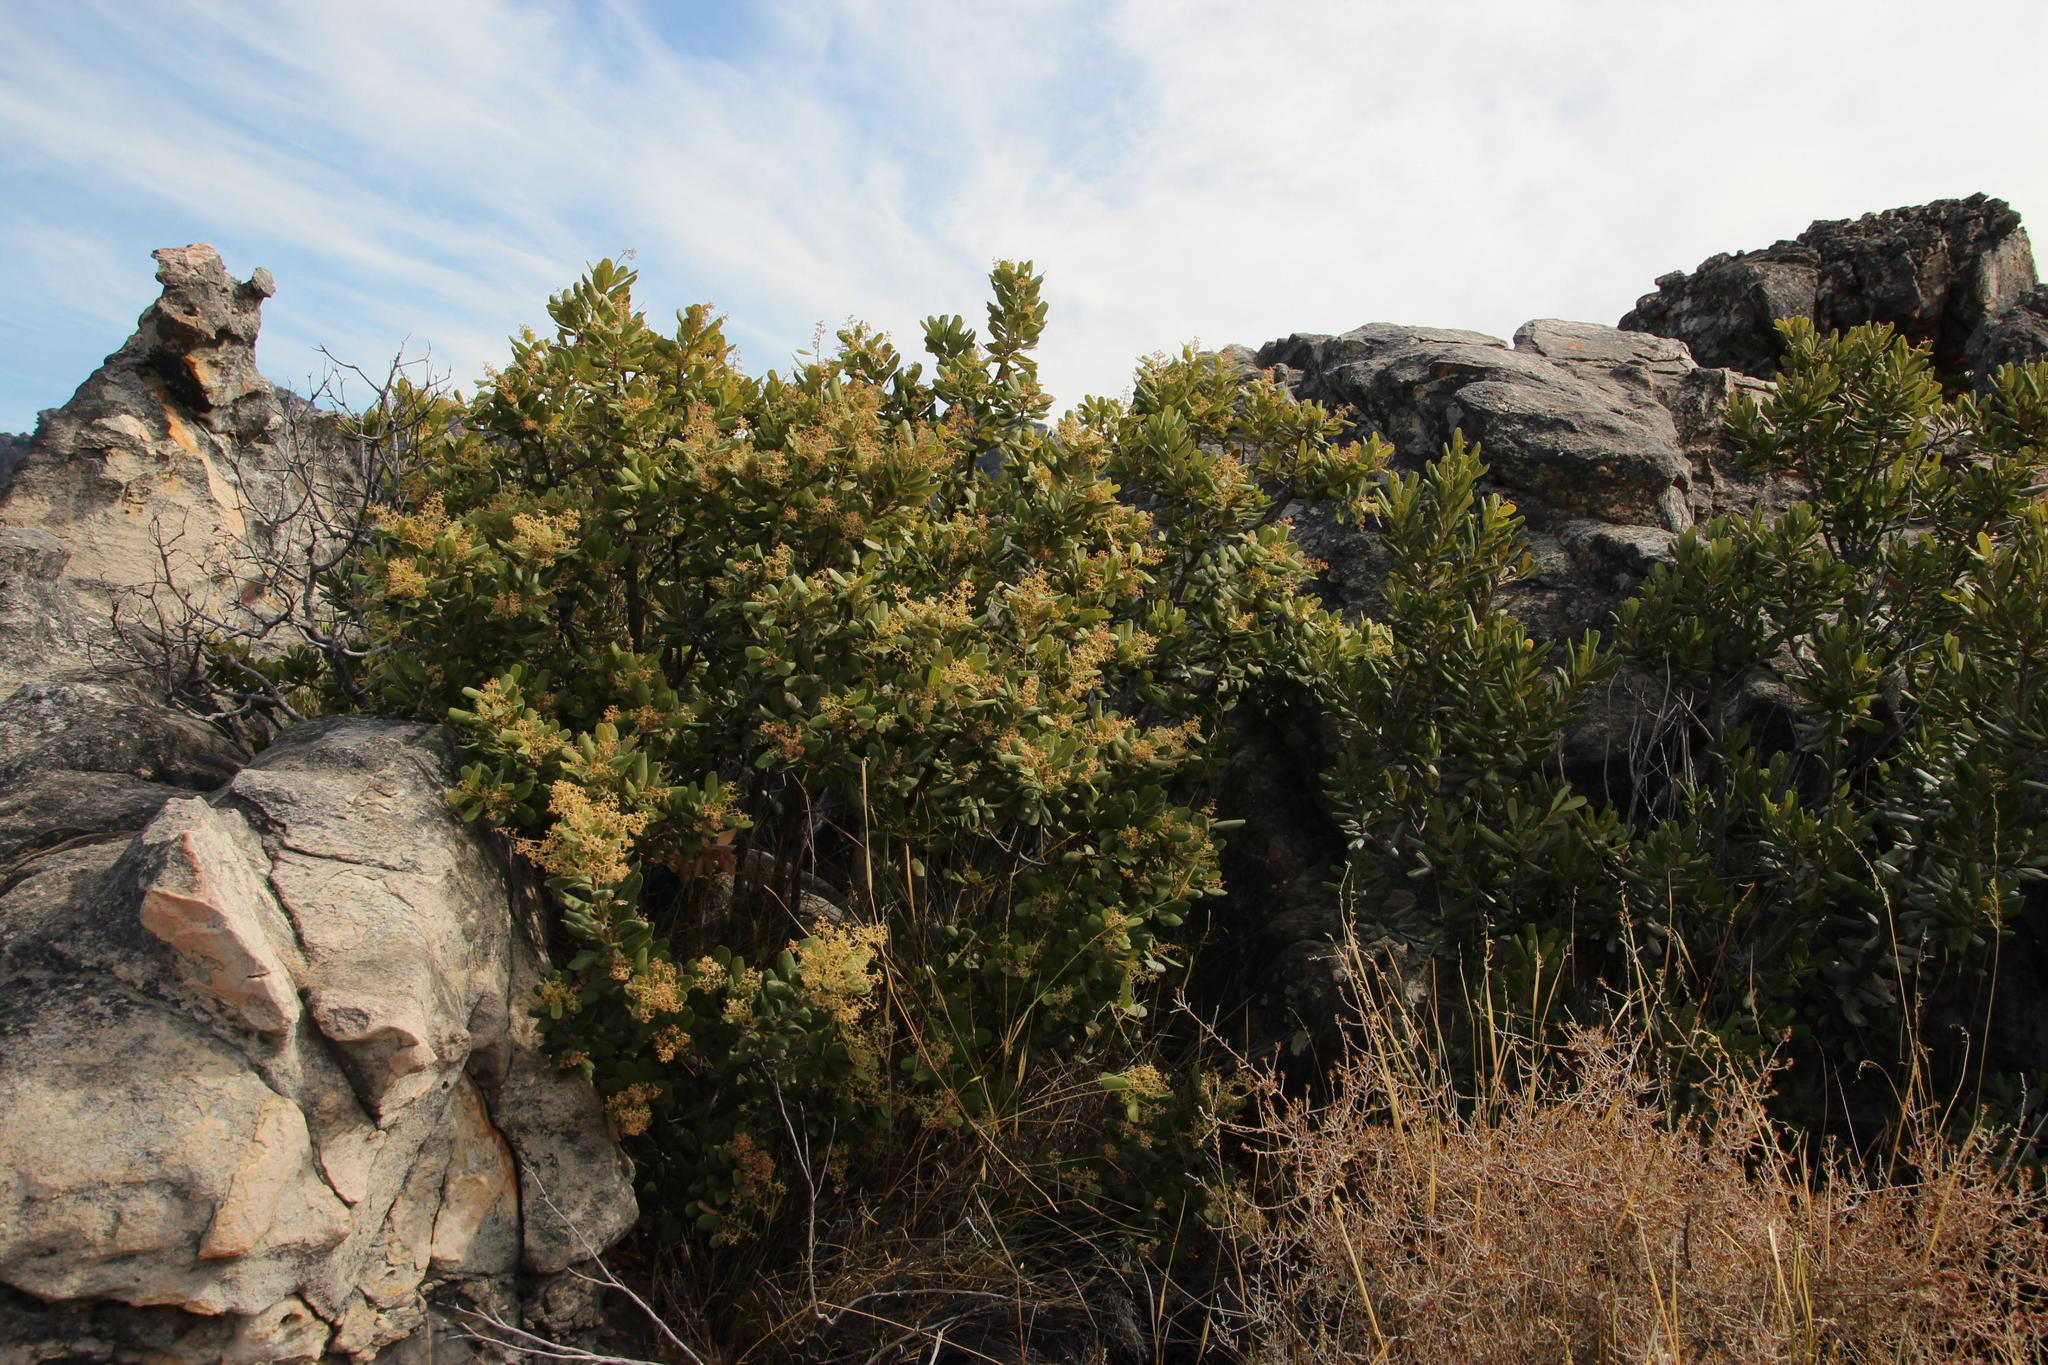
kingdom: Plantae
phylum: Tracheophyta
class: Magnoliopsida
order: Sapindales
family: Anacardiaceae
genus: Heeria
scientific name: Heeria argentea
